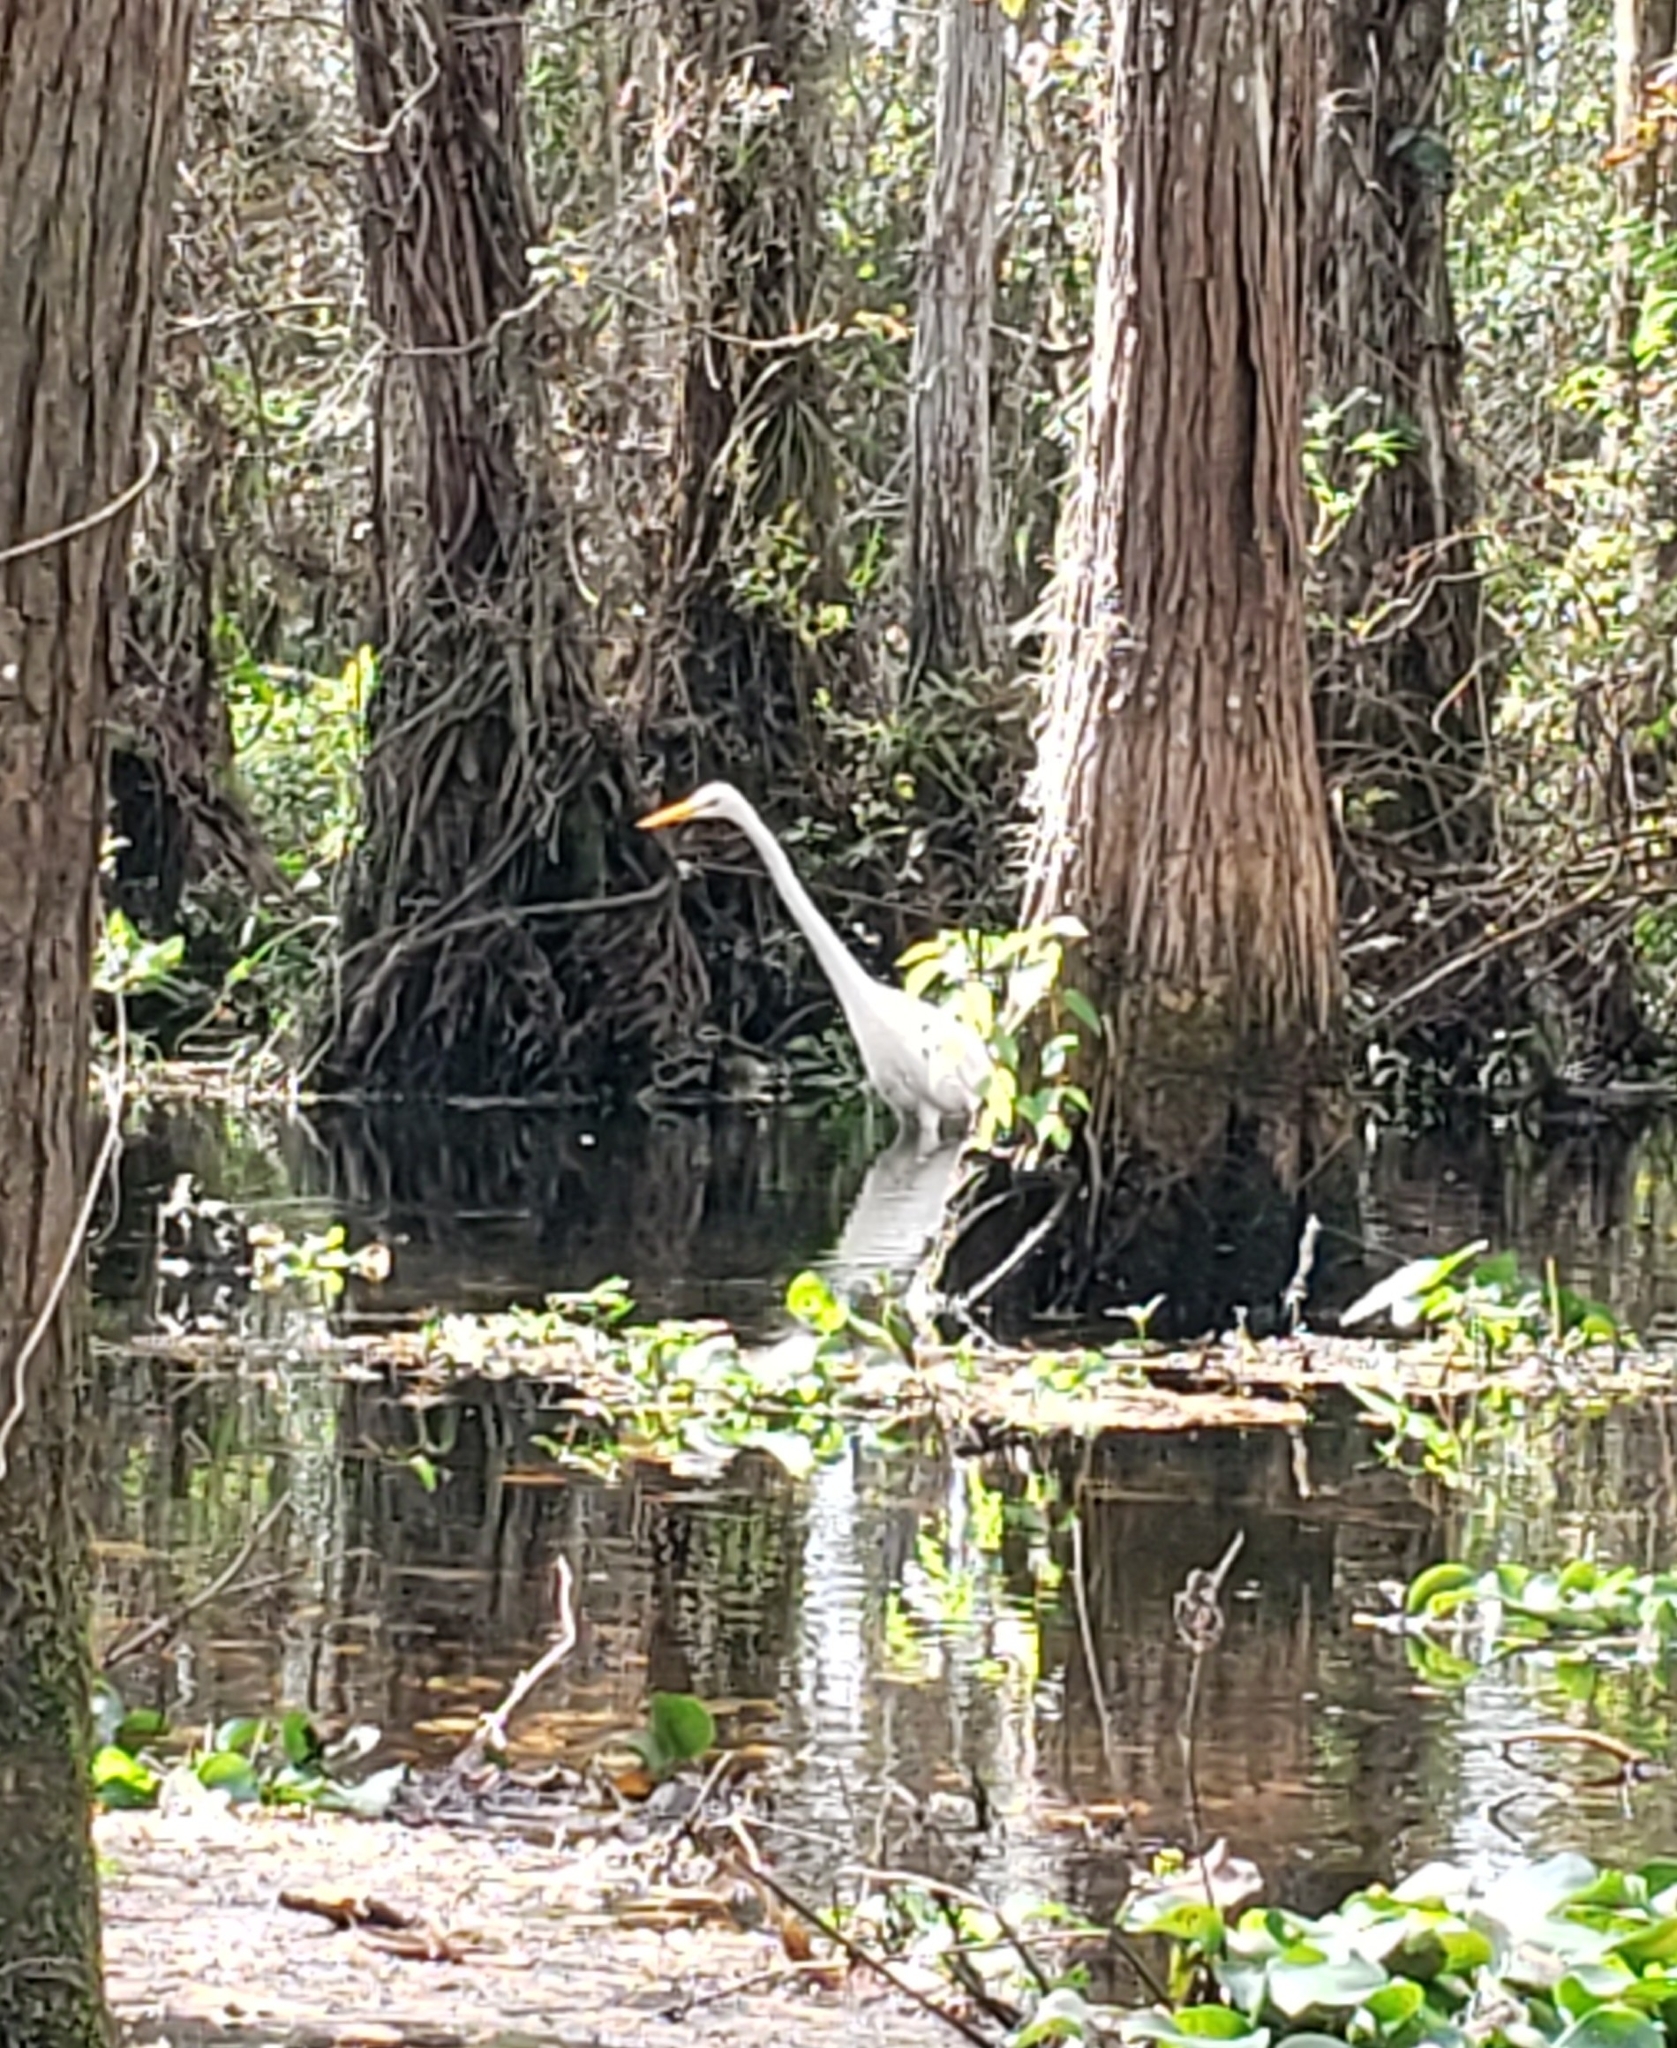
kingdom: Animalia
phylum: Chordata
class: Aves
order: Pelecaniformes
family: Ardeidae
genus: Ardea
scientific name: Ardea alba
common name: Great egret
